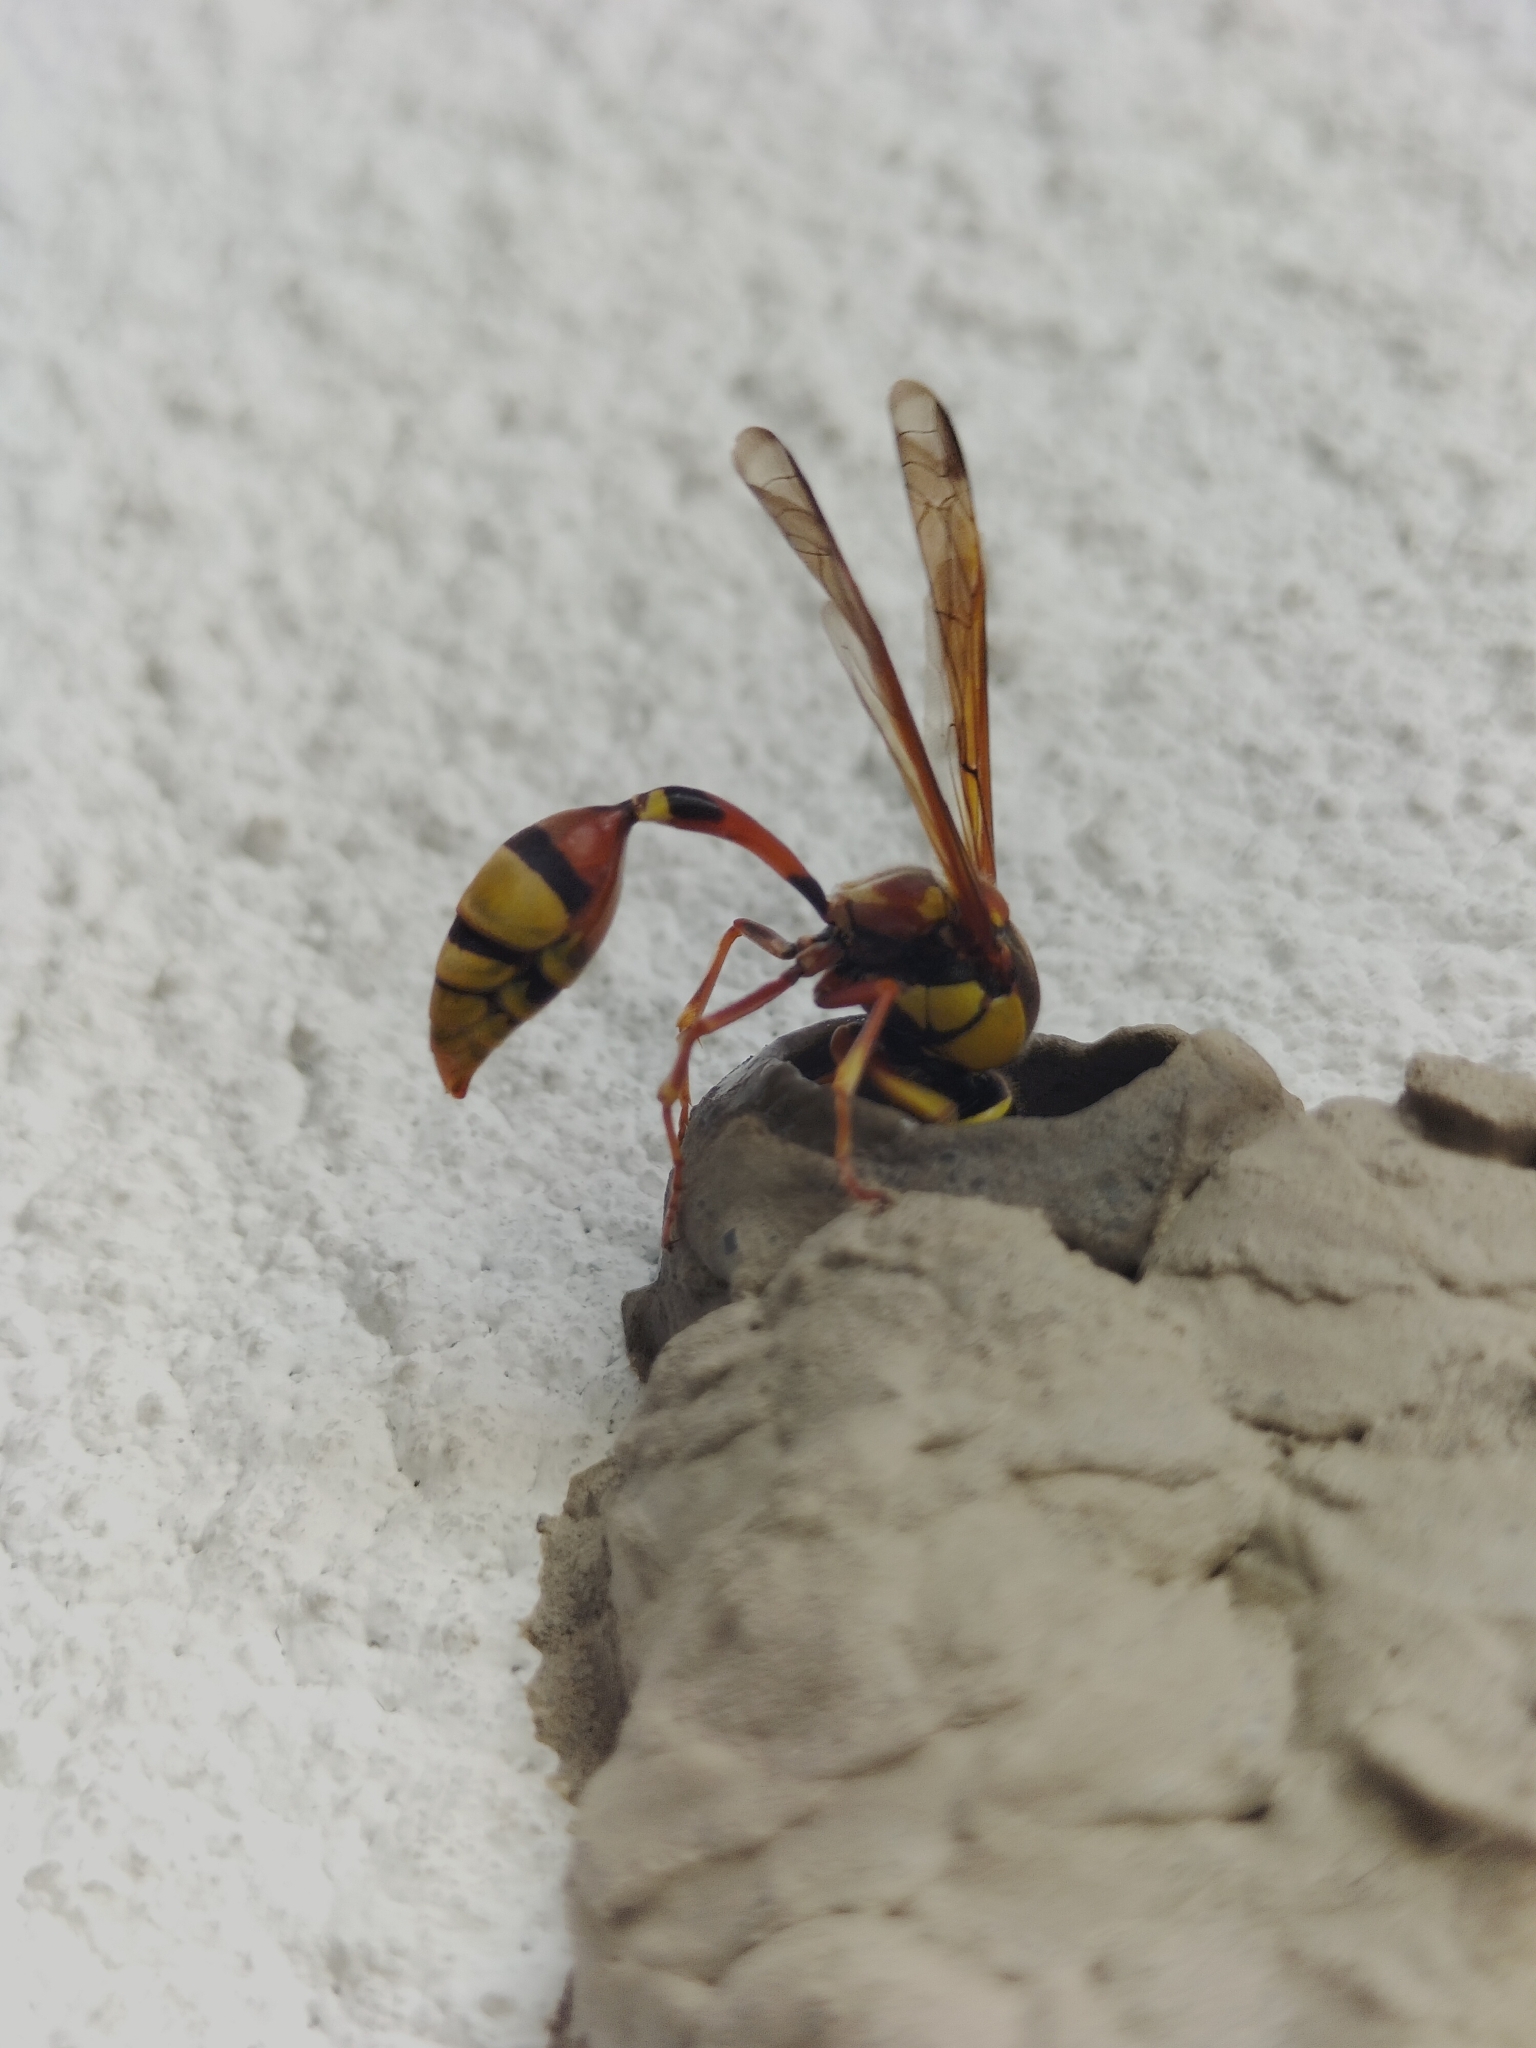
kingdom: Animalia
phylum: Arthropoda
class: Insecta
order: Hymenoptera
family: Eumenidae
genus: Delta
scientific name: Delta esuriens
